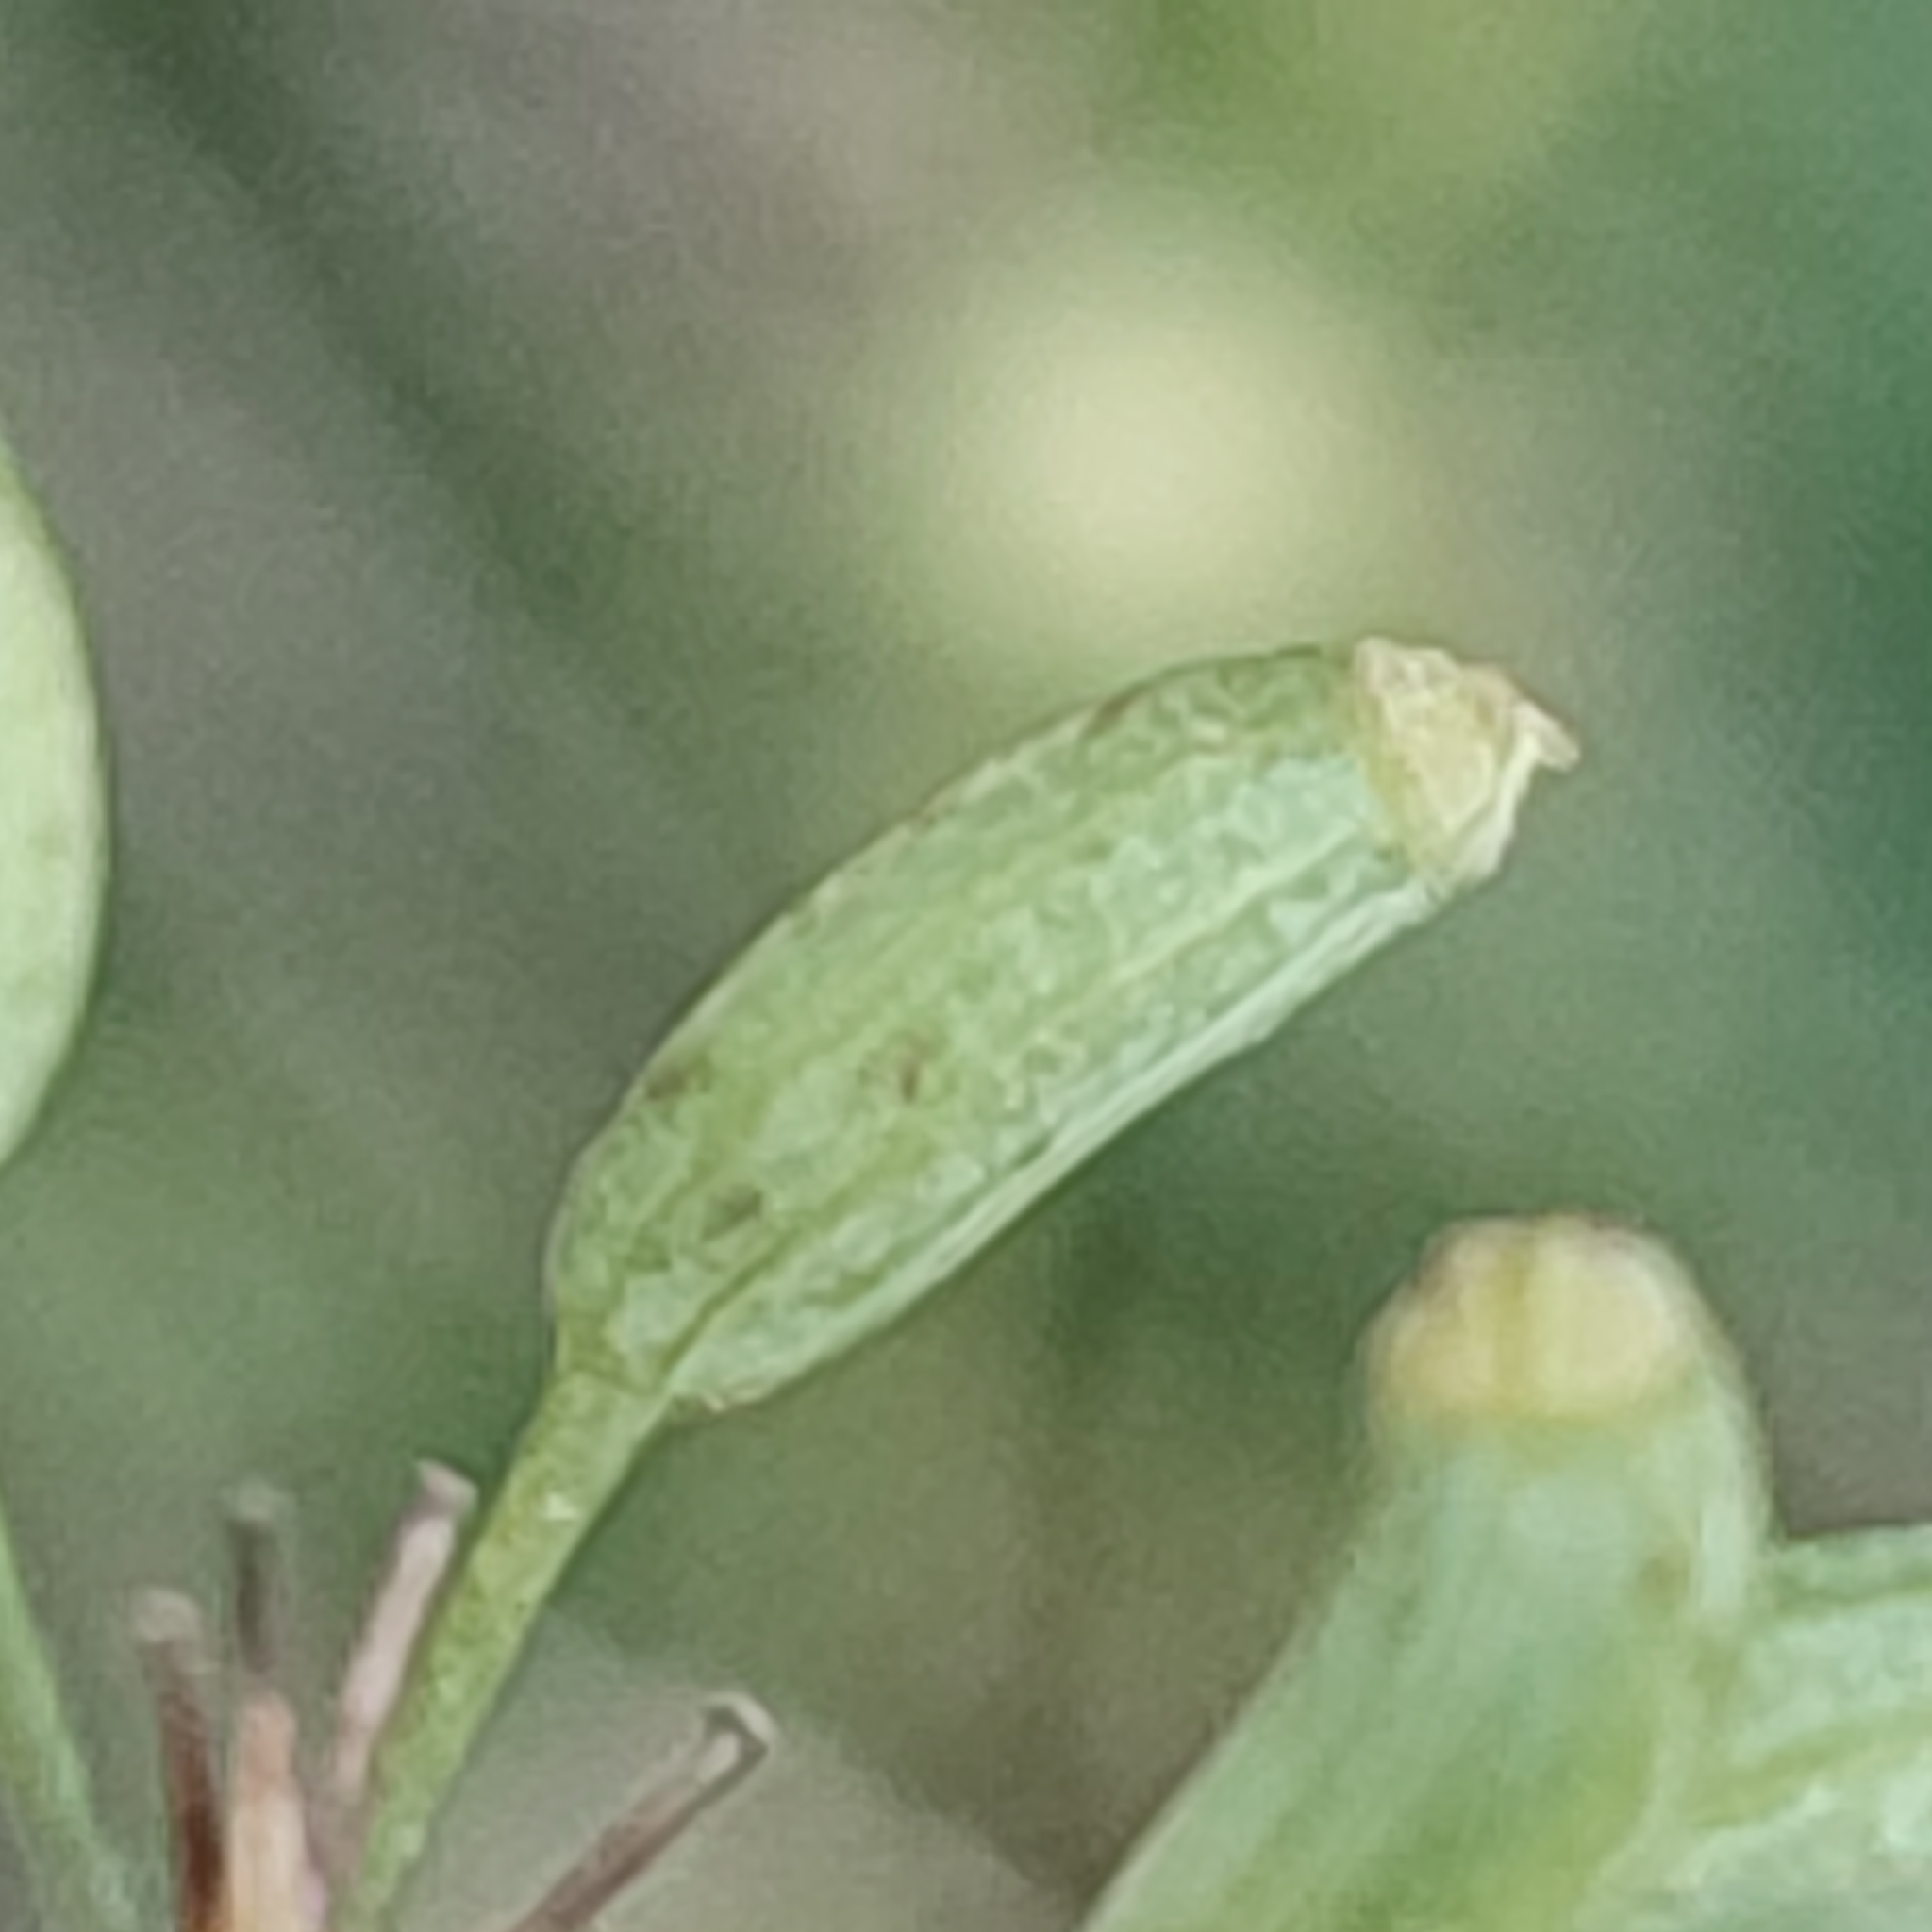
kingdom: Plantae
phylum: Tracheophyta
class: Magnoliopsida
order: Apiales
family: Apiaceae
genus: Foeniculum
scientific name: Foeniculum vulgare
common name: Fennel
